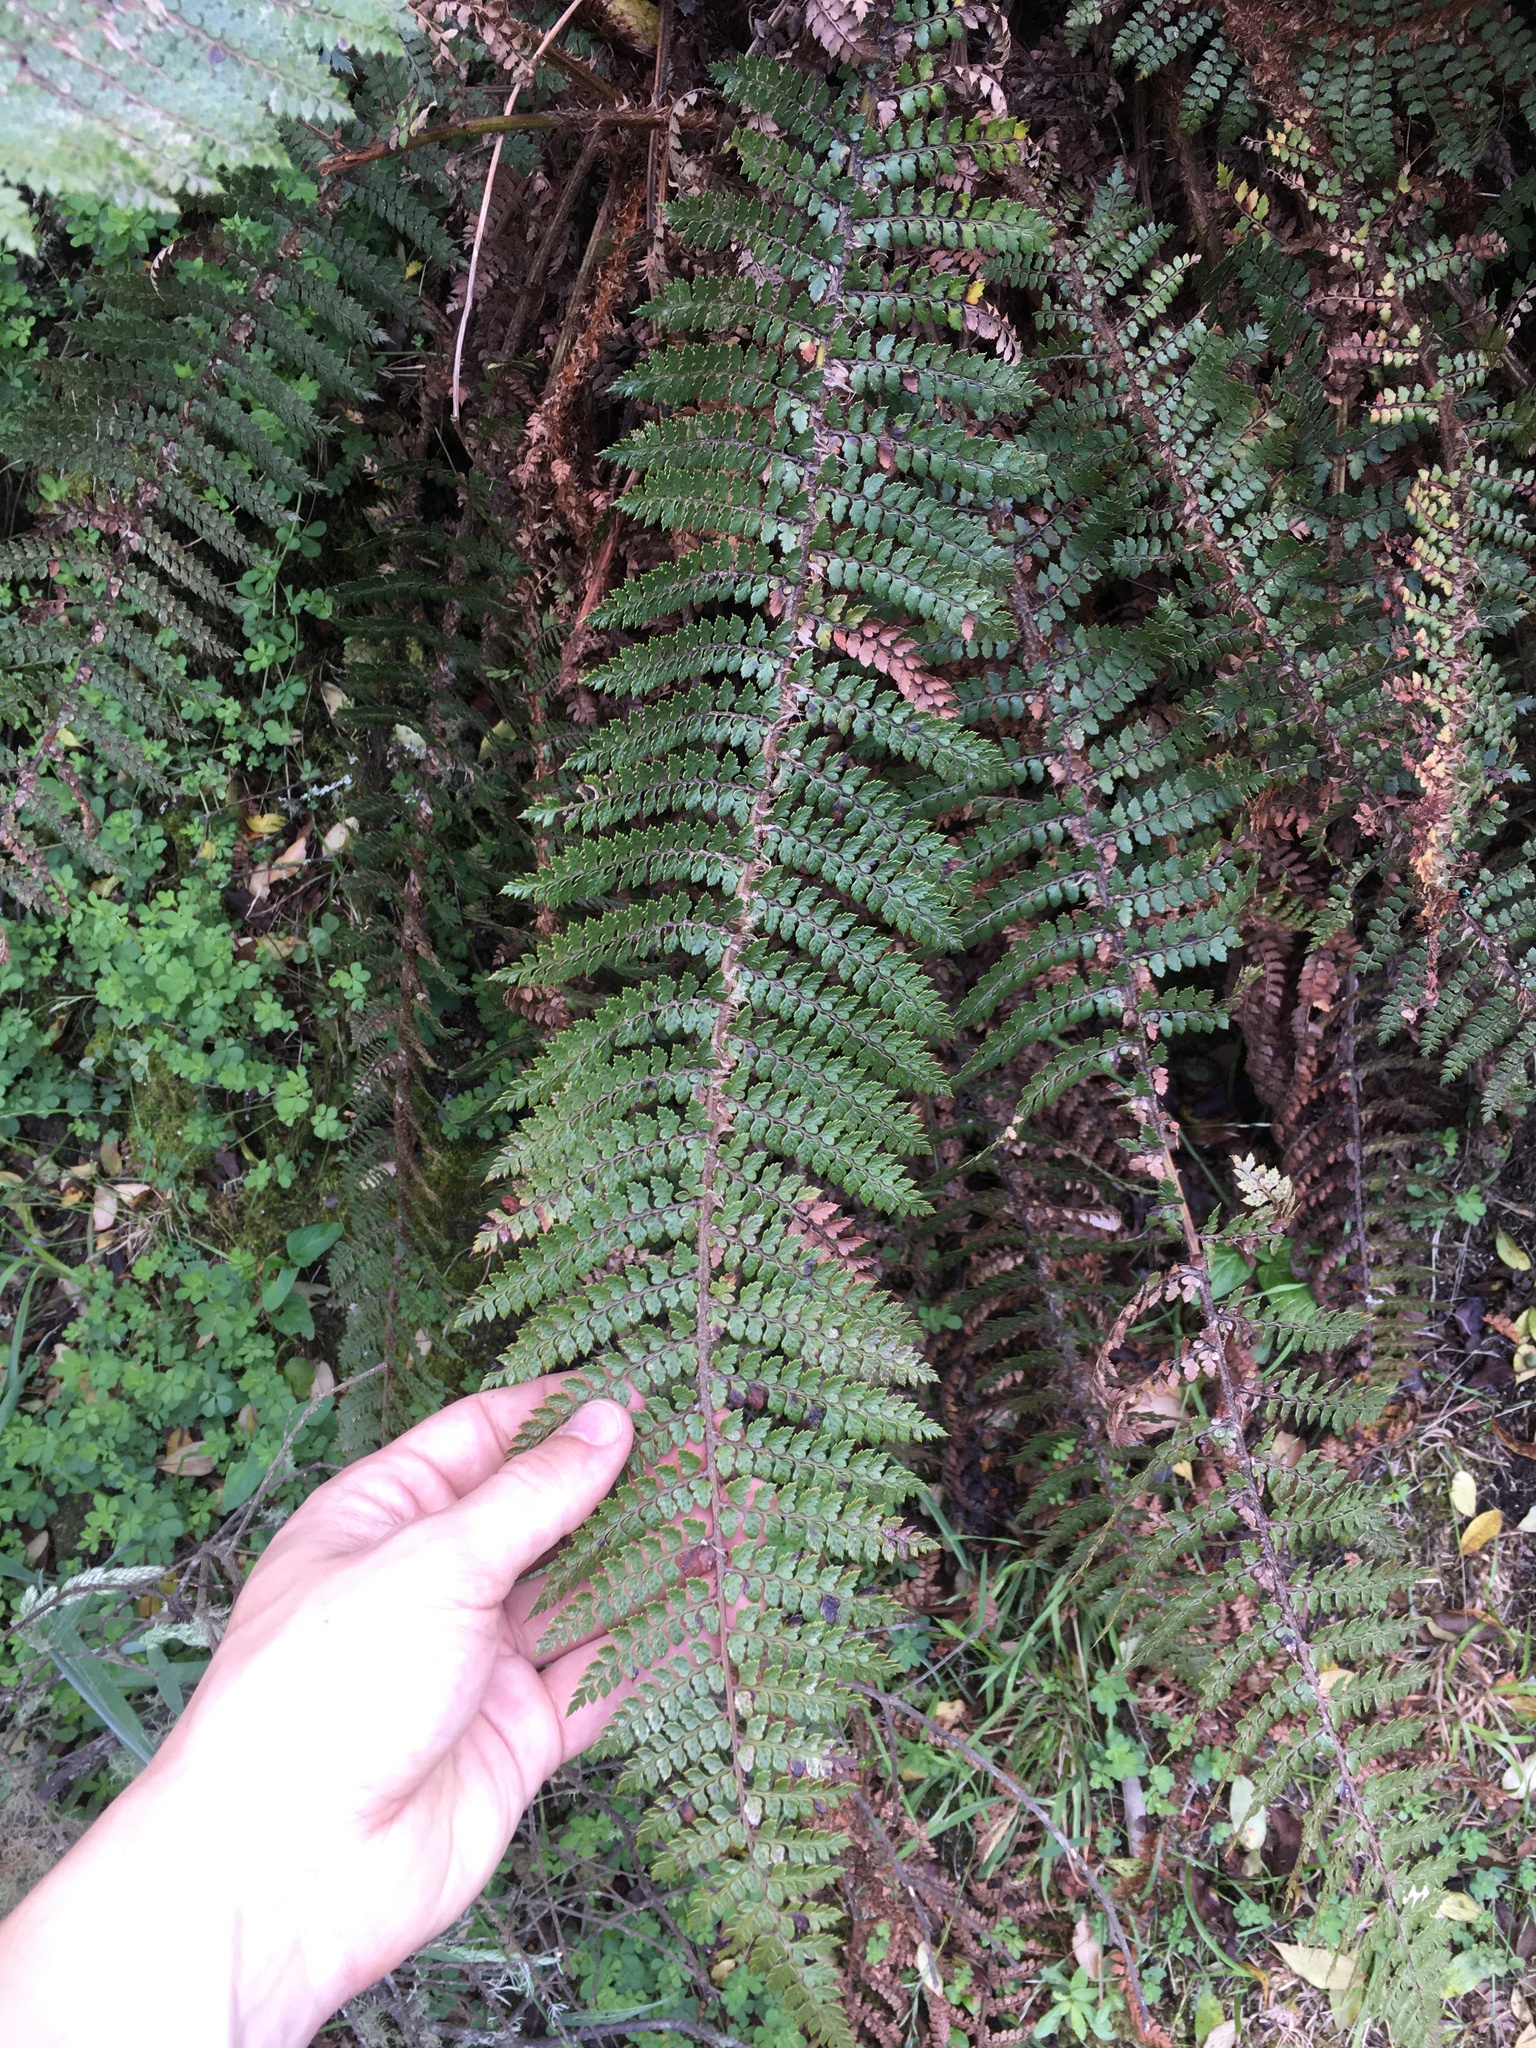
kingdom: Plantae
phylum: Tracheophyta
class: Polypodiopsida
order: Polypodiales
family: Dryopteridaceae
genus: Polystichum
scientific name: Polystichum vestitum
